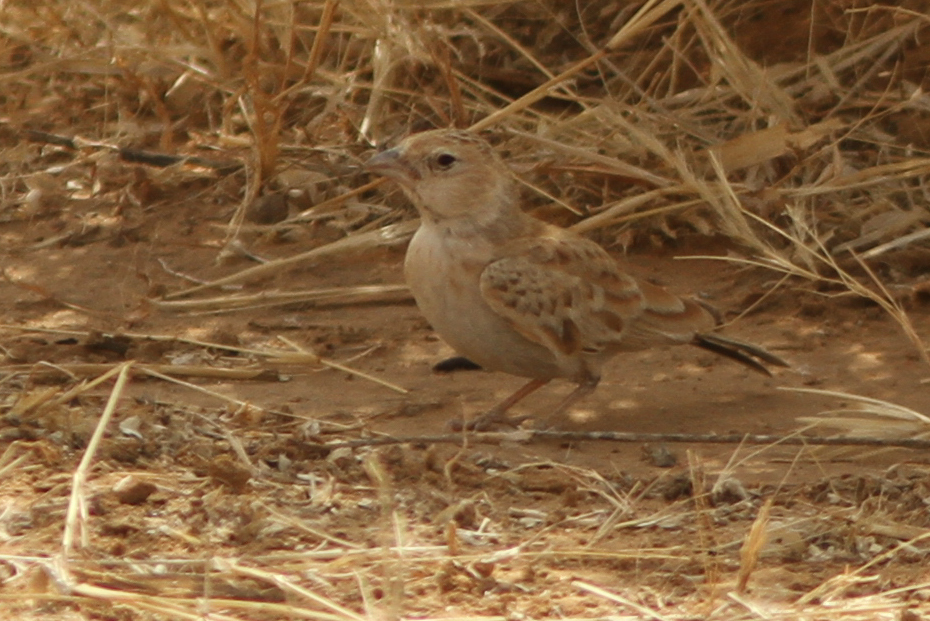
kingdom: Animalia
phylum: Chordata
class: Aves
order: Passeriformes
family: Alaudidae
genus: Eremopterix
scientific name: Eremopterix nigriceps
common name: Black-crowned sparrow-lark
